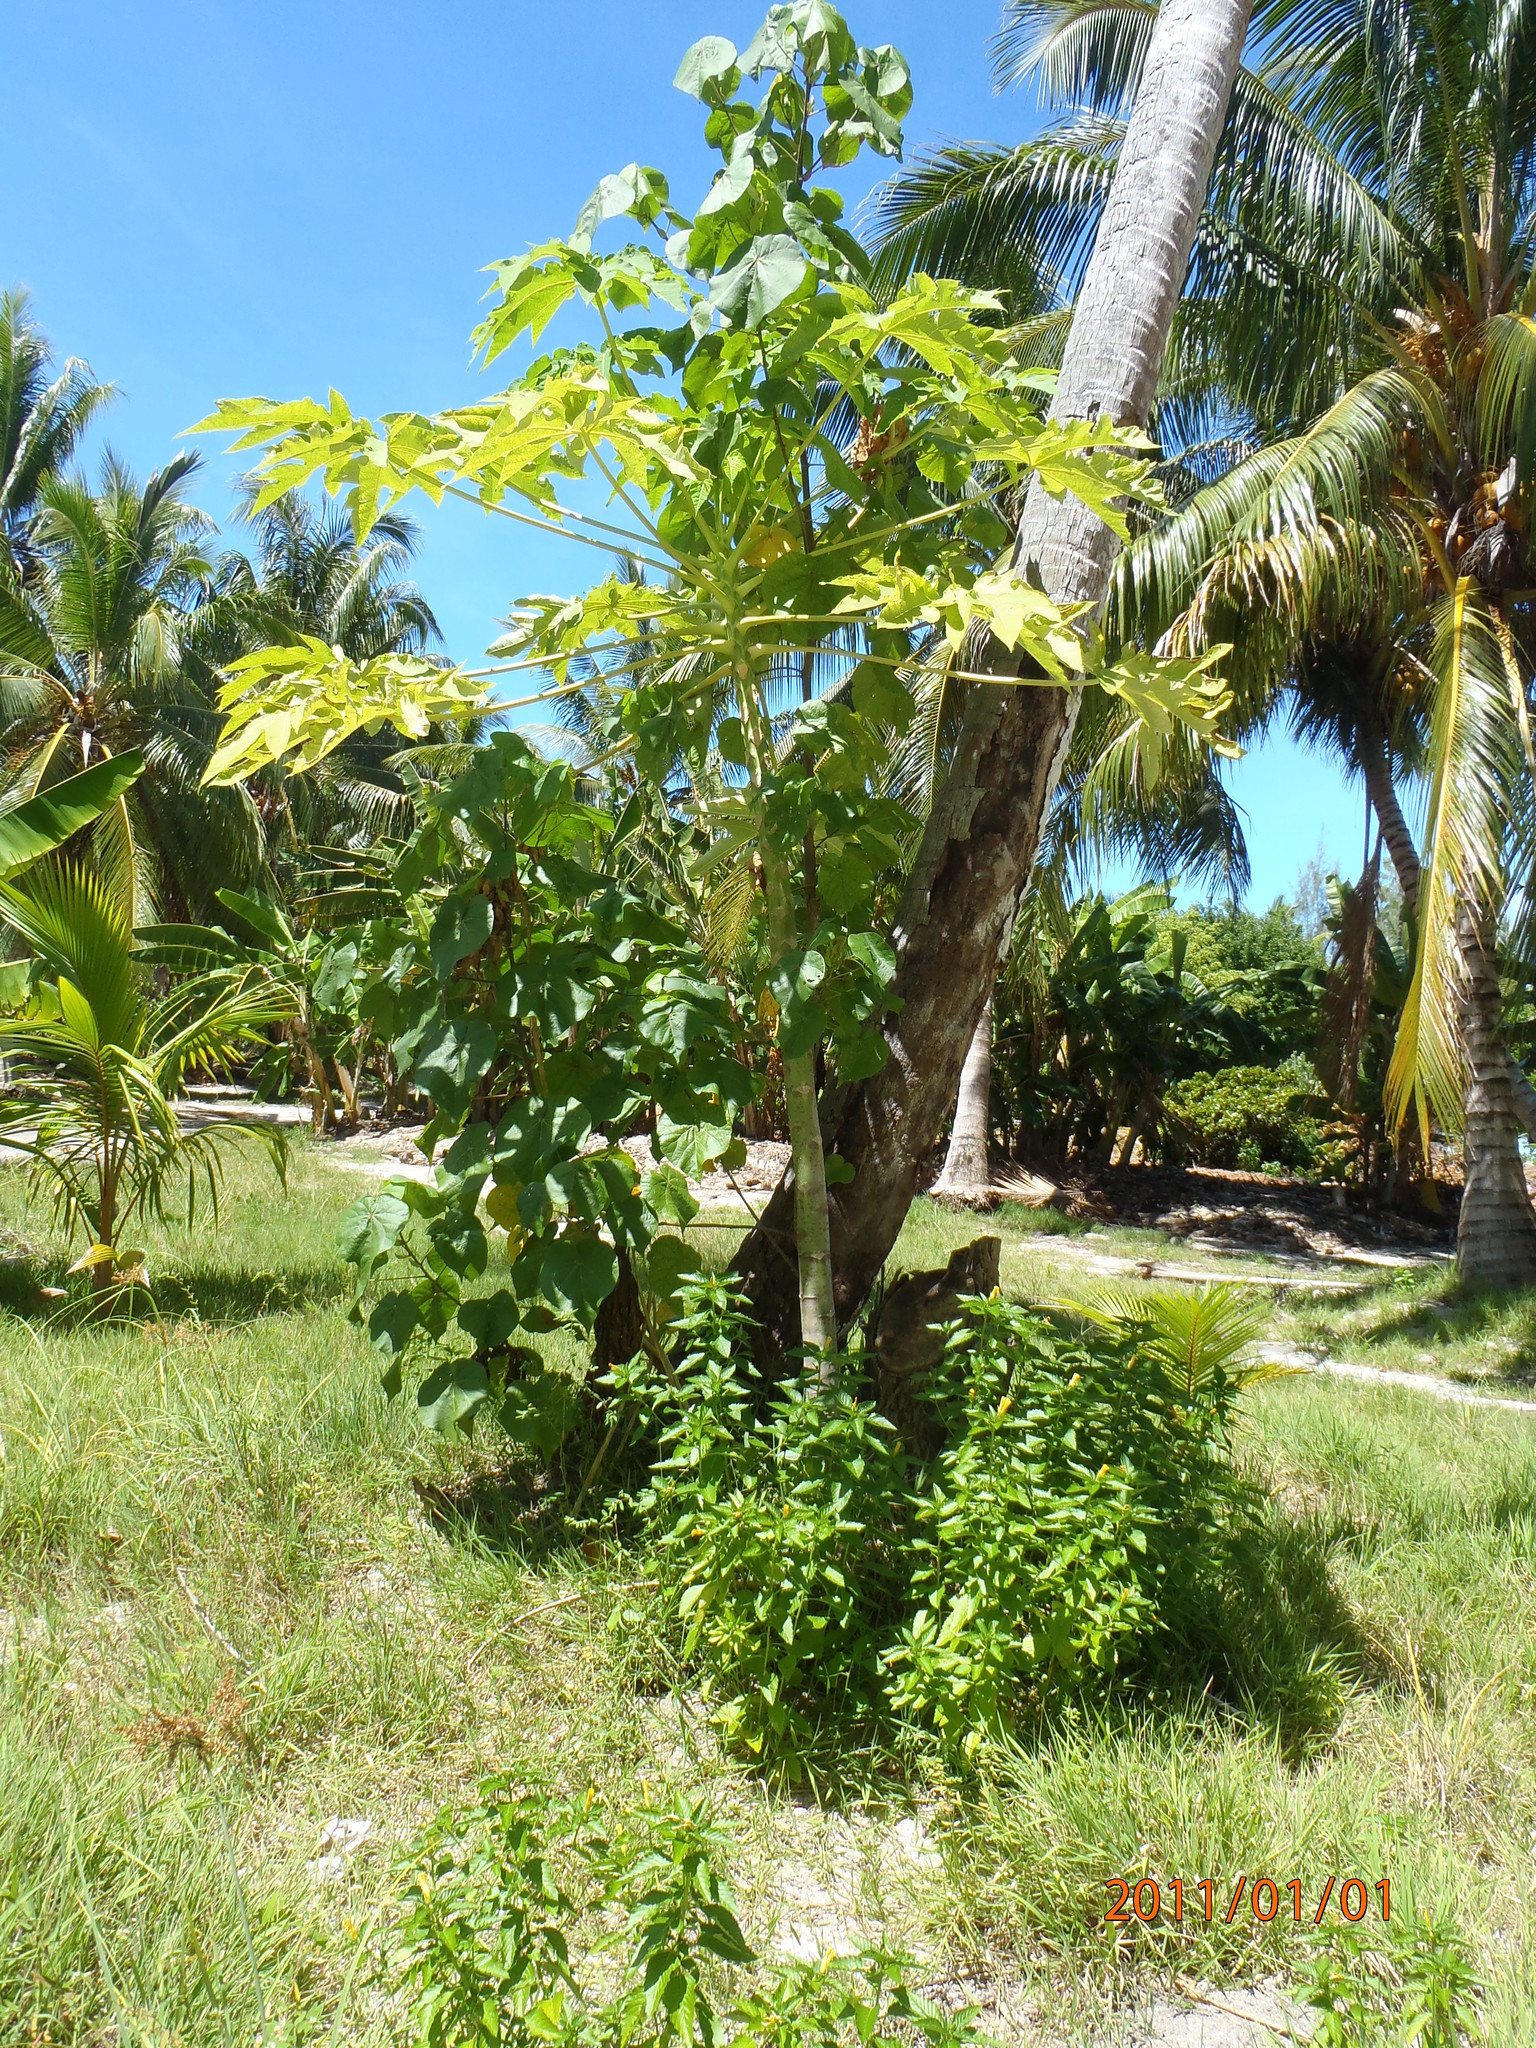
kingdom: Plantae
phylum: Tracheophyta
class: Magnoliopsida
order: Brassicales
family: Caricaceae
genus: Carica
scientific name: Carica papaya
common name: Papaya
